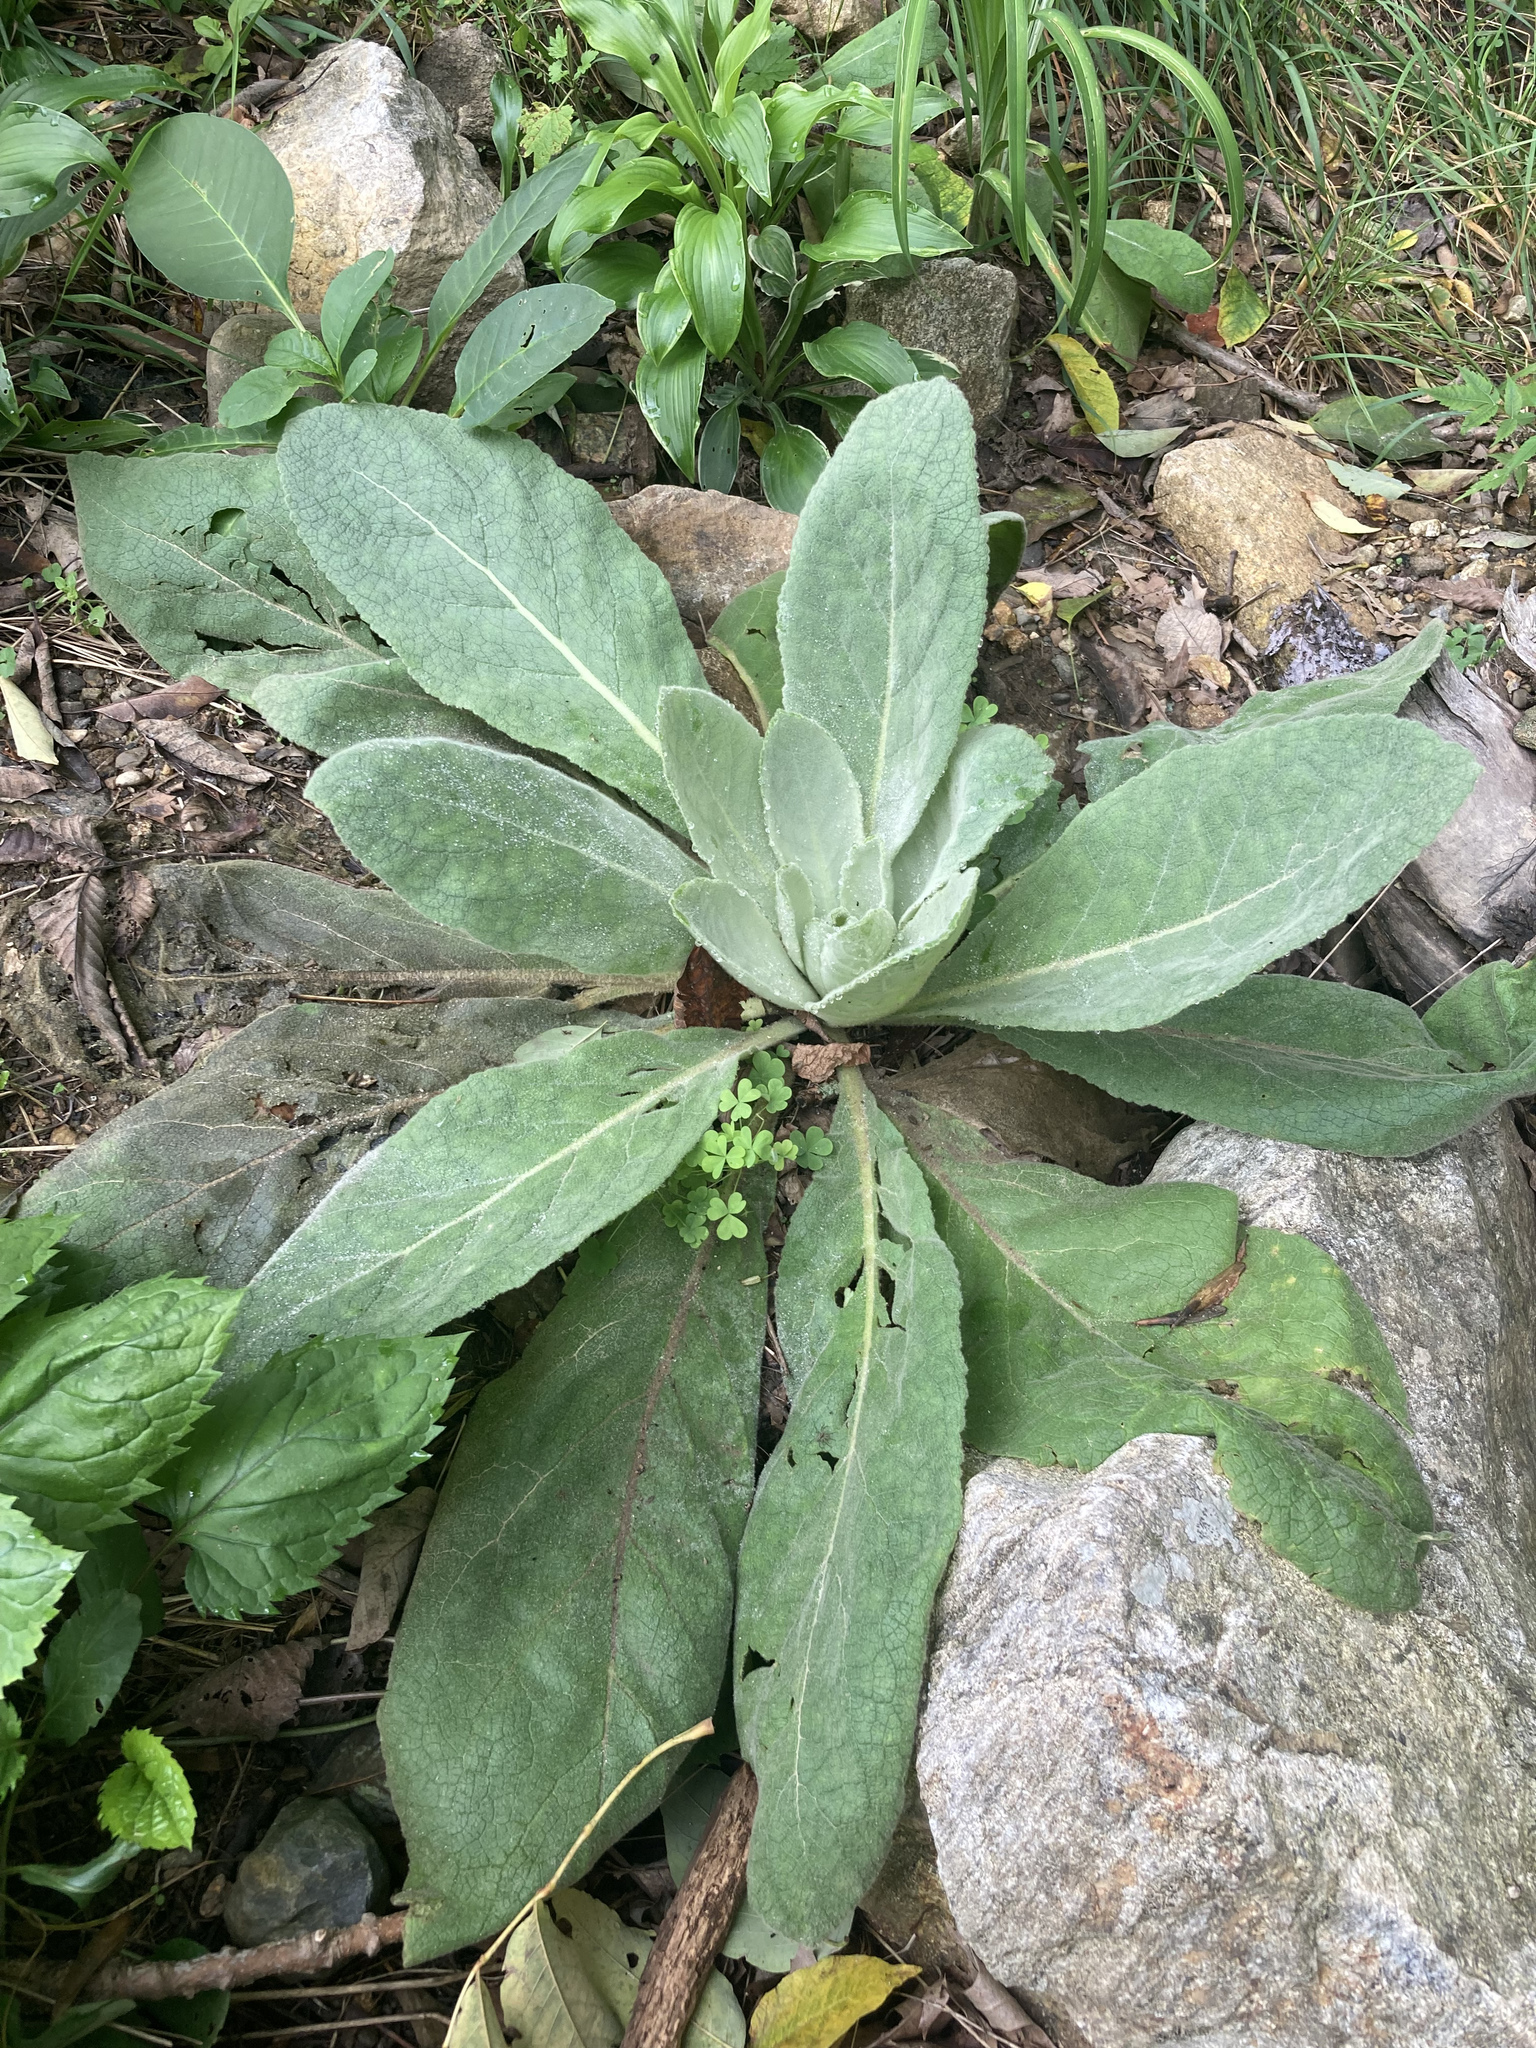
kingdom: Plantae
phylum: Tracheophyta
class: Magnoliopsida
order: Lamiales
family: Scrophulariaceae
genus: Verbascum
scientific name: Verbascum thapsus
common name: Common mullein
